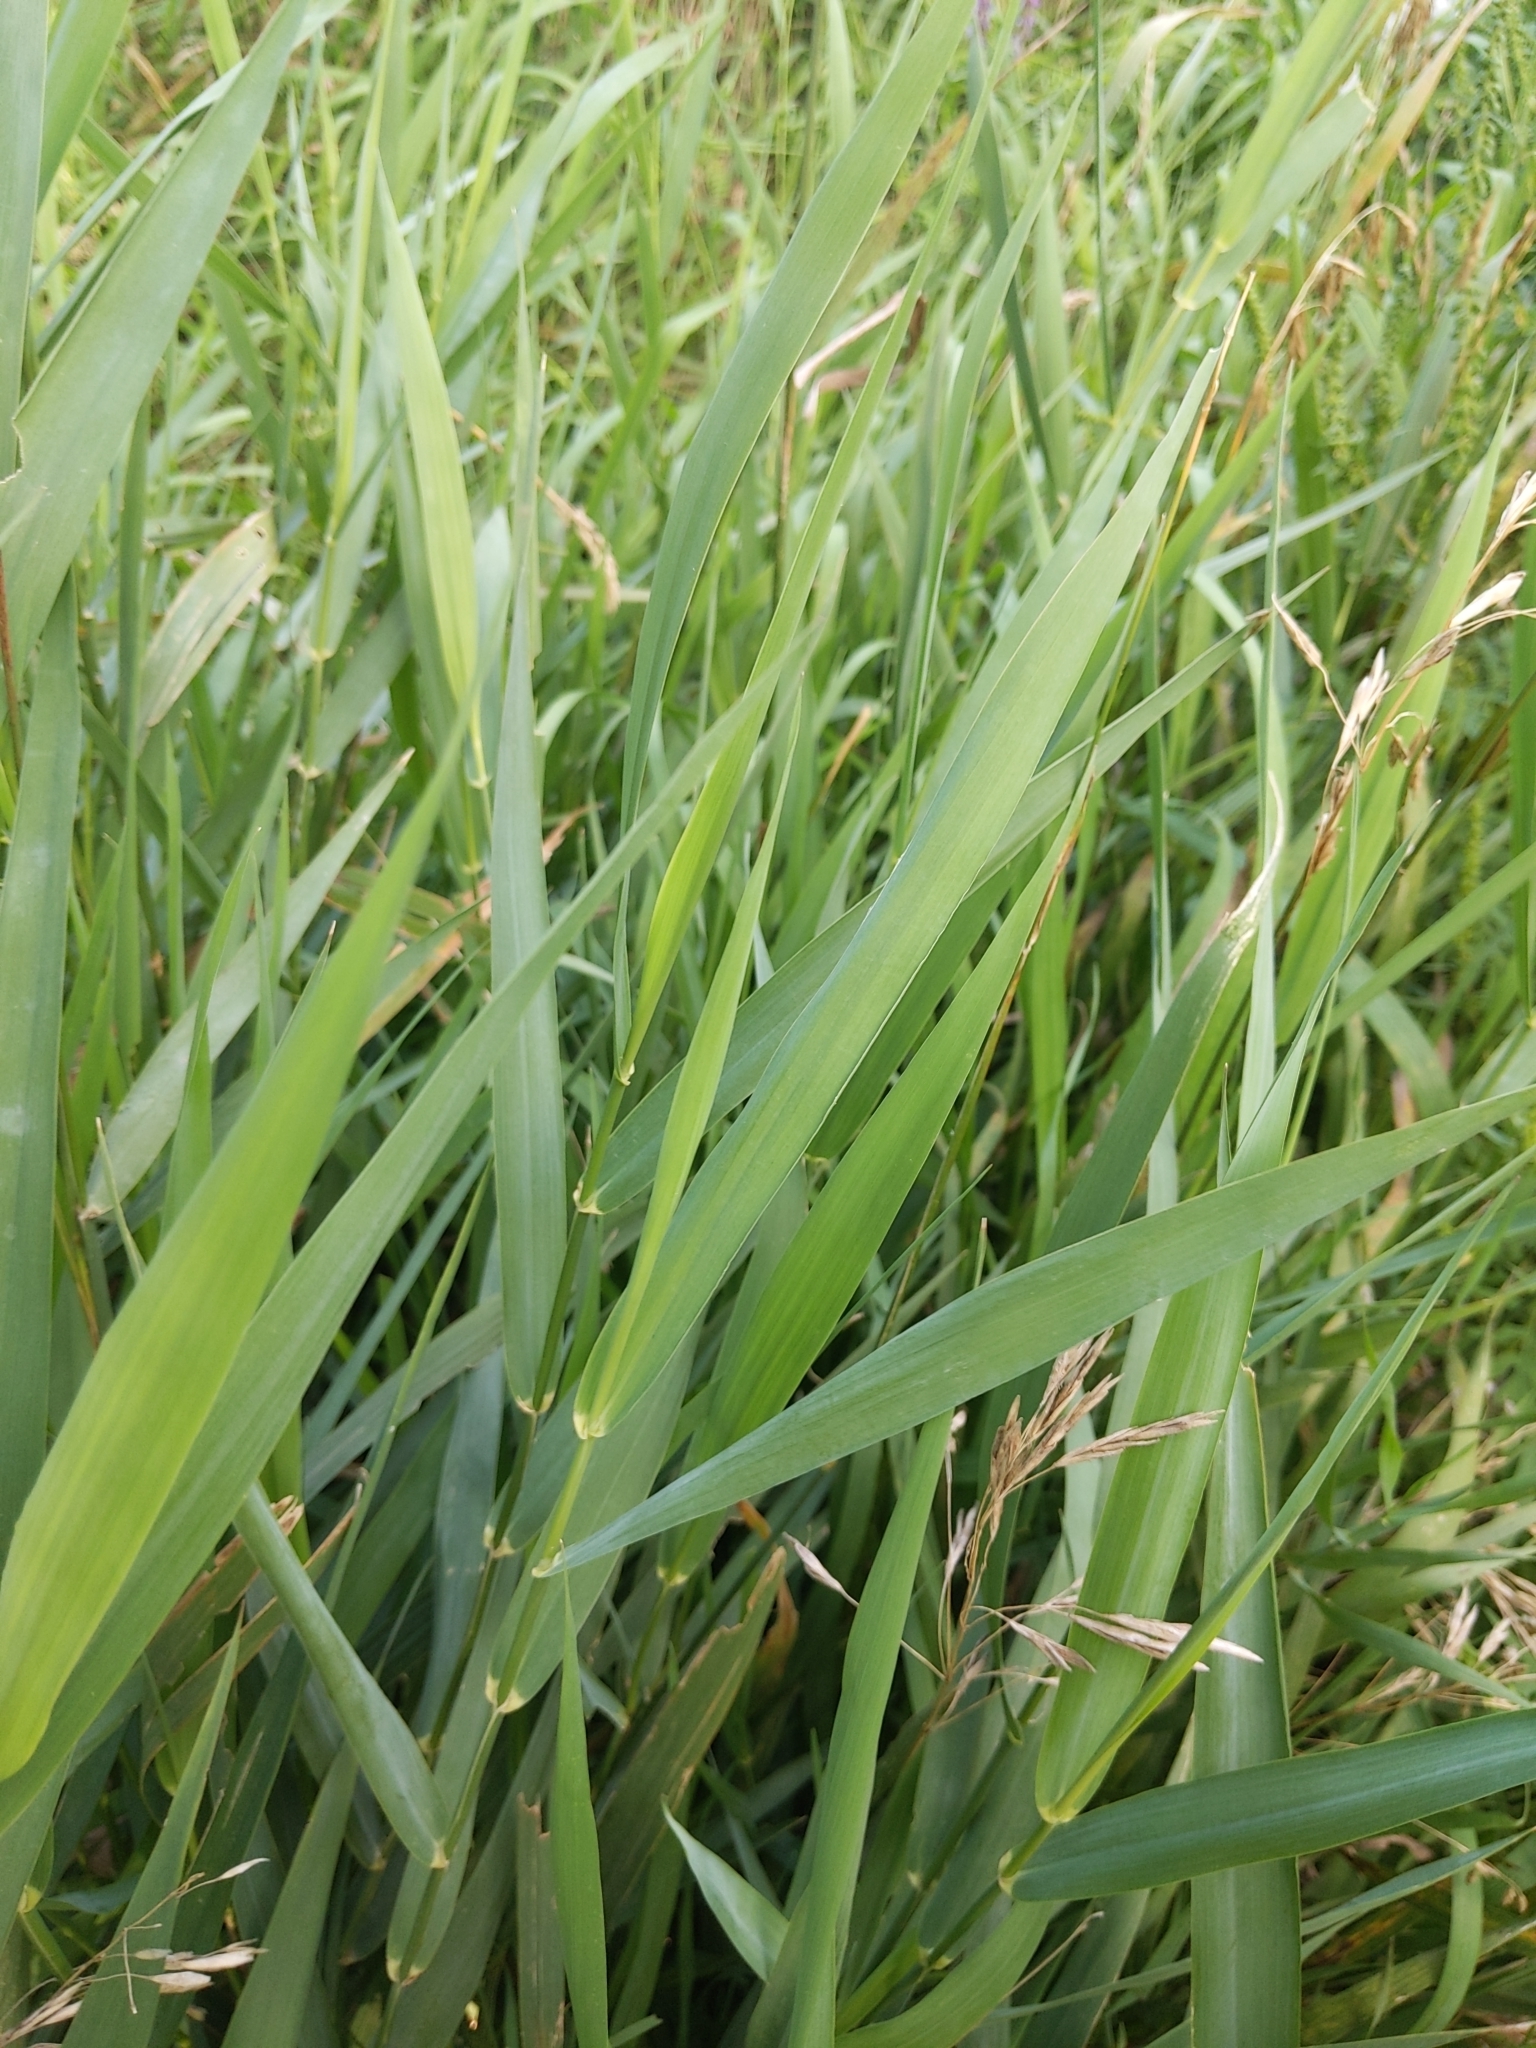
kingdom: Plantae
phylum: Tracheophyta
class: Liliopsida
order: Poales
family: Poaceae
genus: Phalaris
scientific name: Phalaris arundinacea
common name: Reed canary-grass
